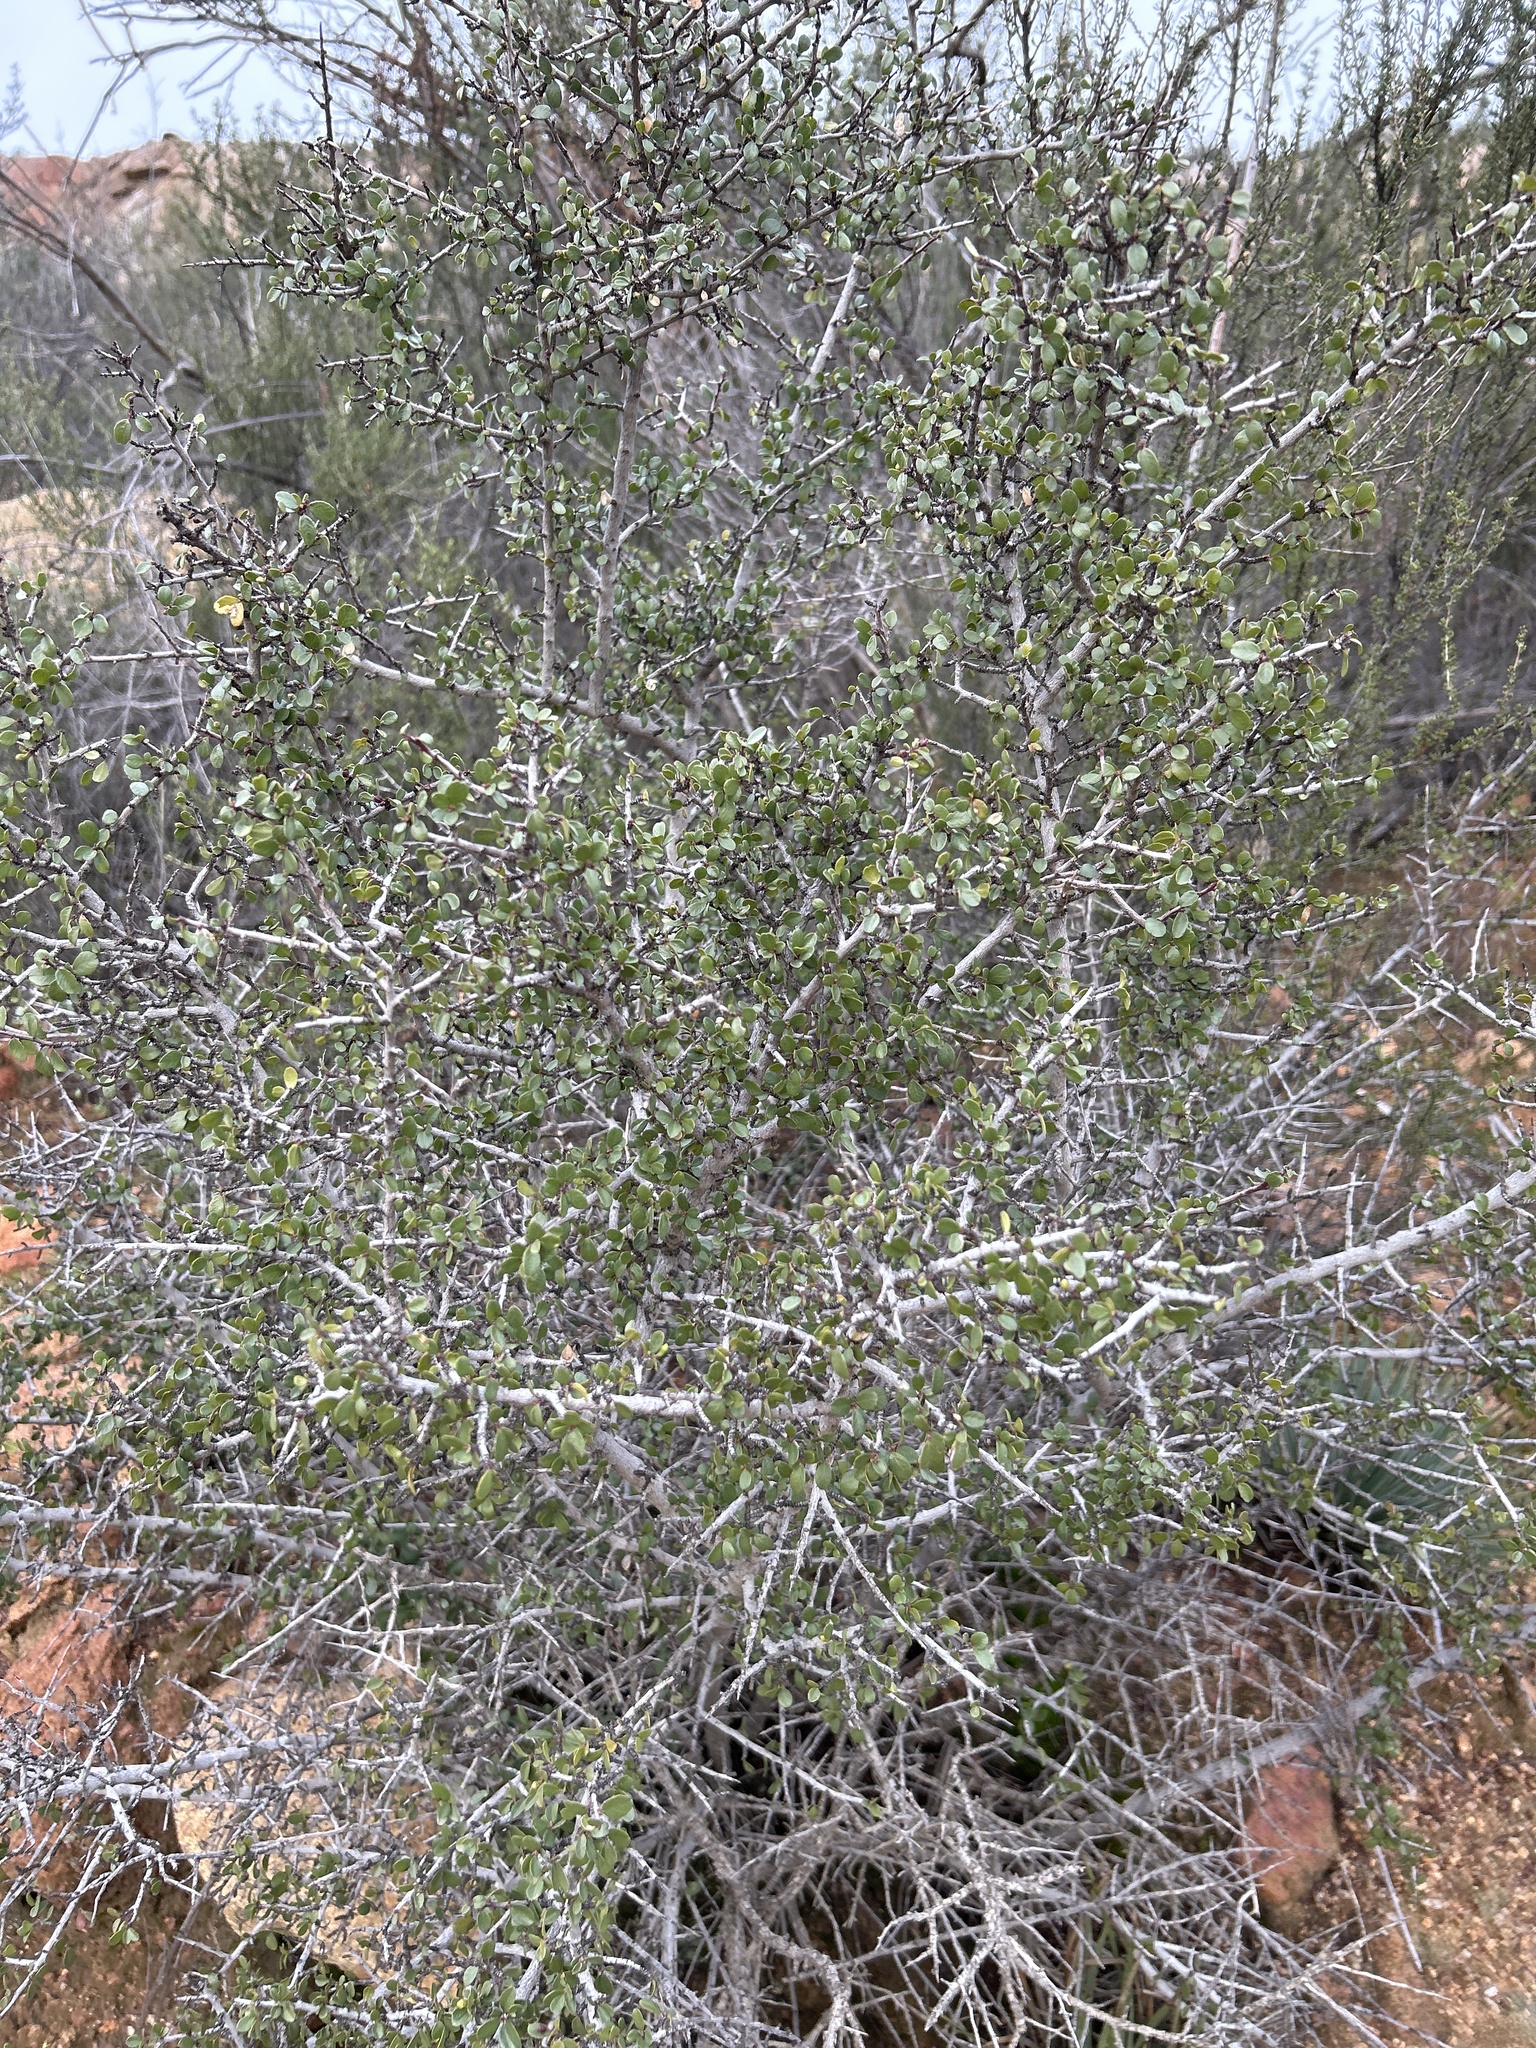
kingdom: Plantae
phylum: Tracheophyta
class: Magnoliopsida
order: Rosales
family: Rhamnaceae
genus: Endotropis
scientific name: Endotropis crocea
